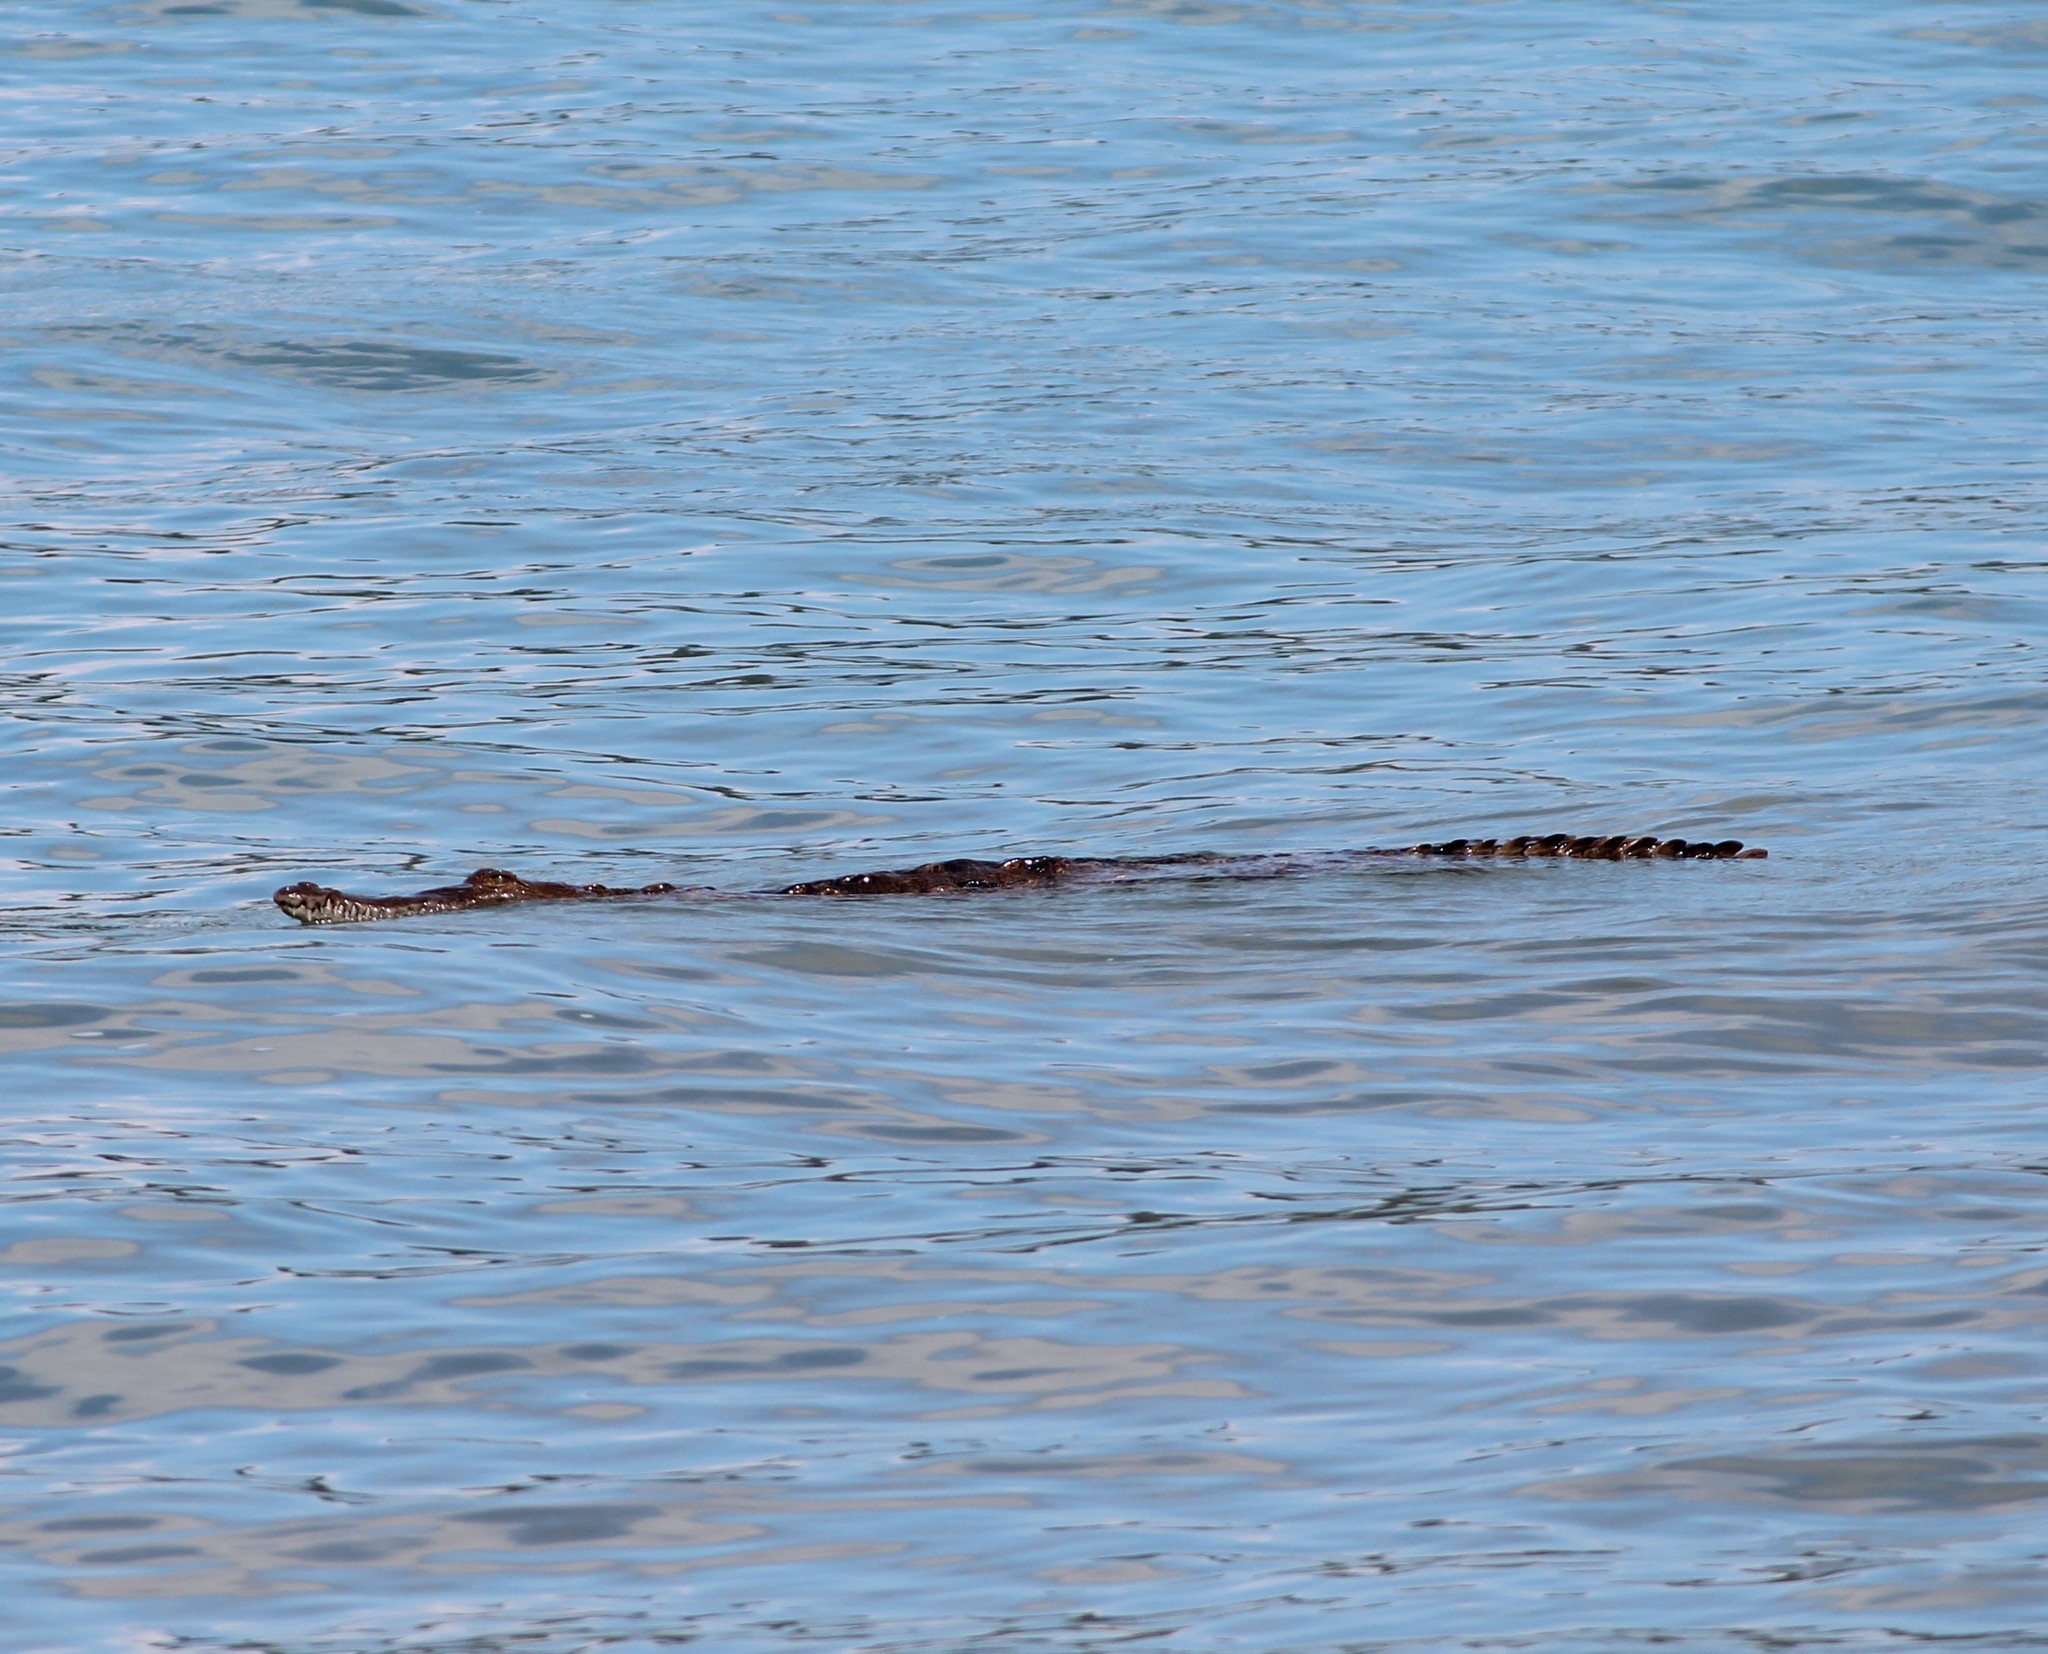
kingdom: Animalia
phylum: Chordata
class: Crocodylia
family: Crocodylidae
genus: Crocodylus
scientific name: Crocodylus acutus
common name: American crocodile
